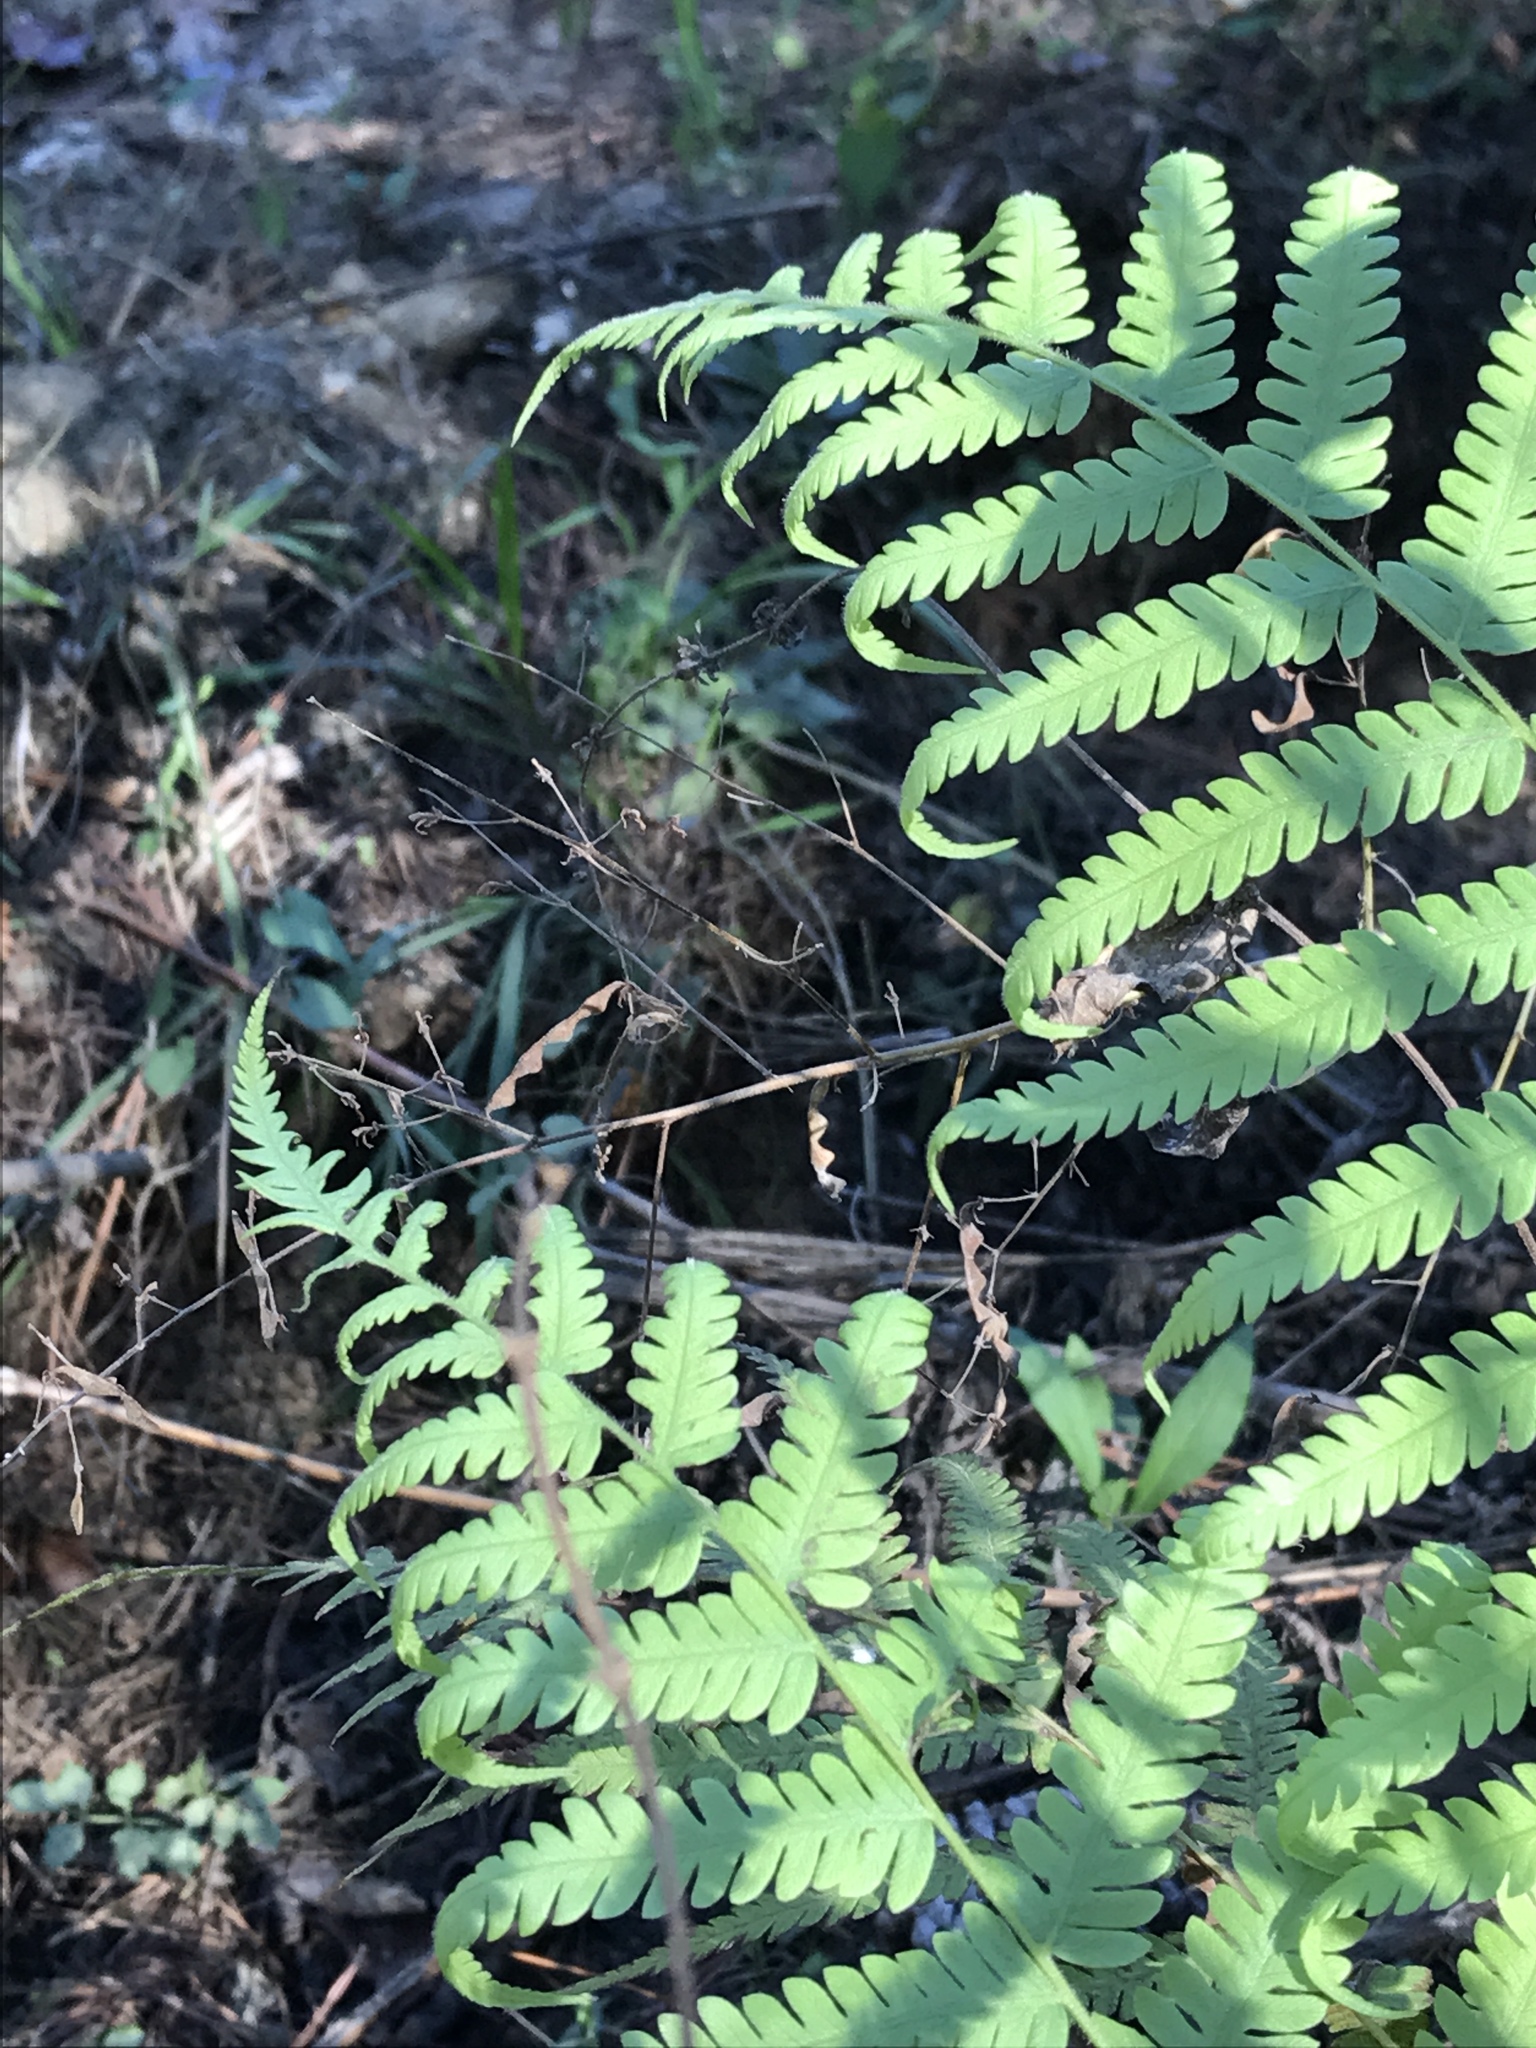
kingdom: Plantae
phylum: Tracheophyta
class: Polypodiopsida
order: Polypodiales
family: Thelypteridaceae
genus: Pelazoneuron
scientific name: Pelazoneuron kunthii
